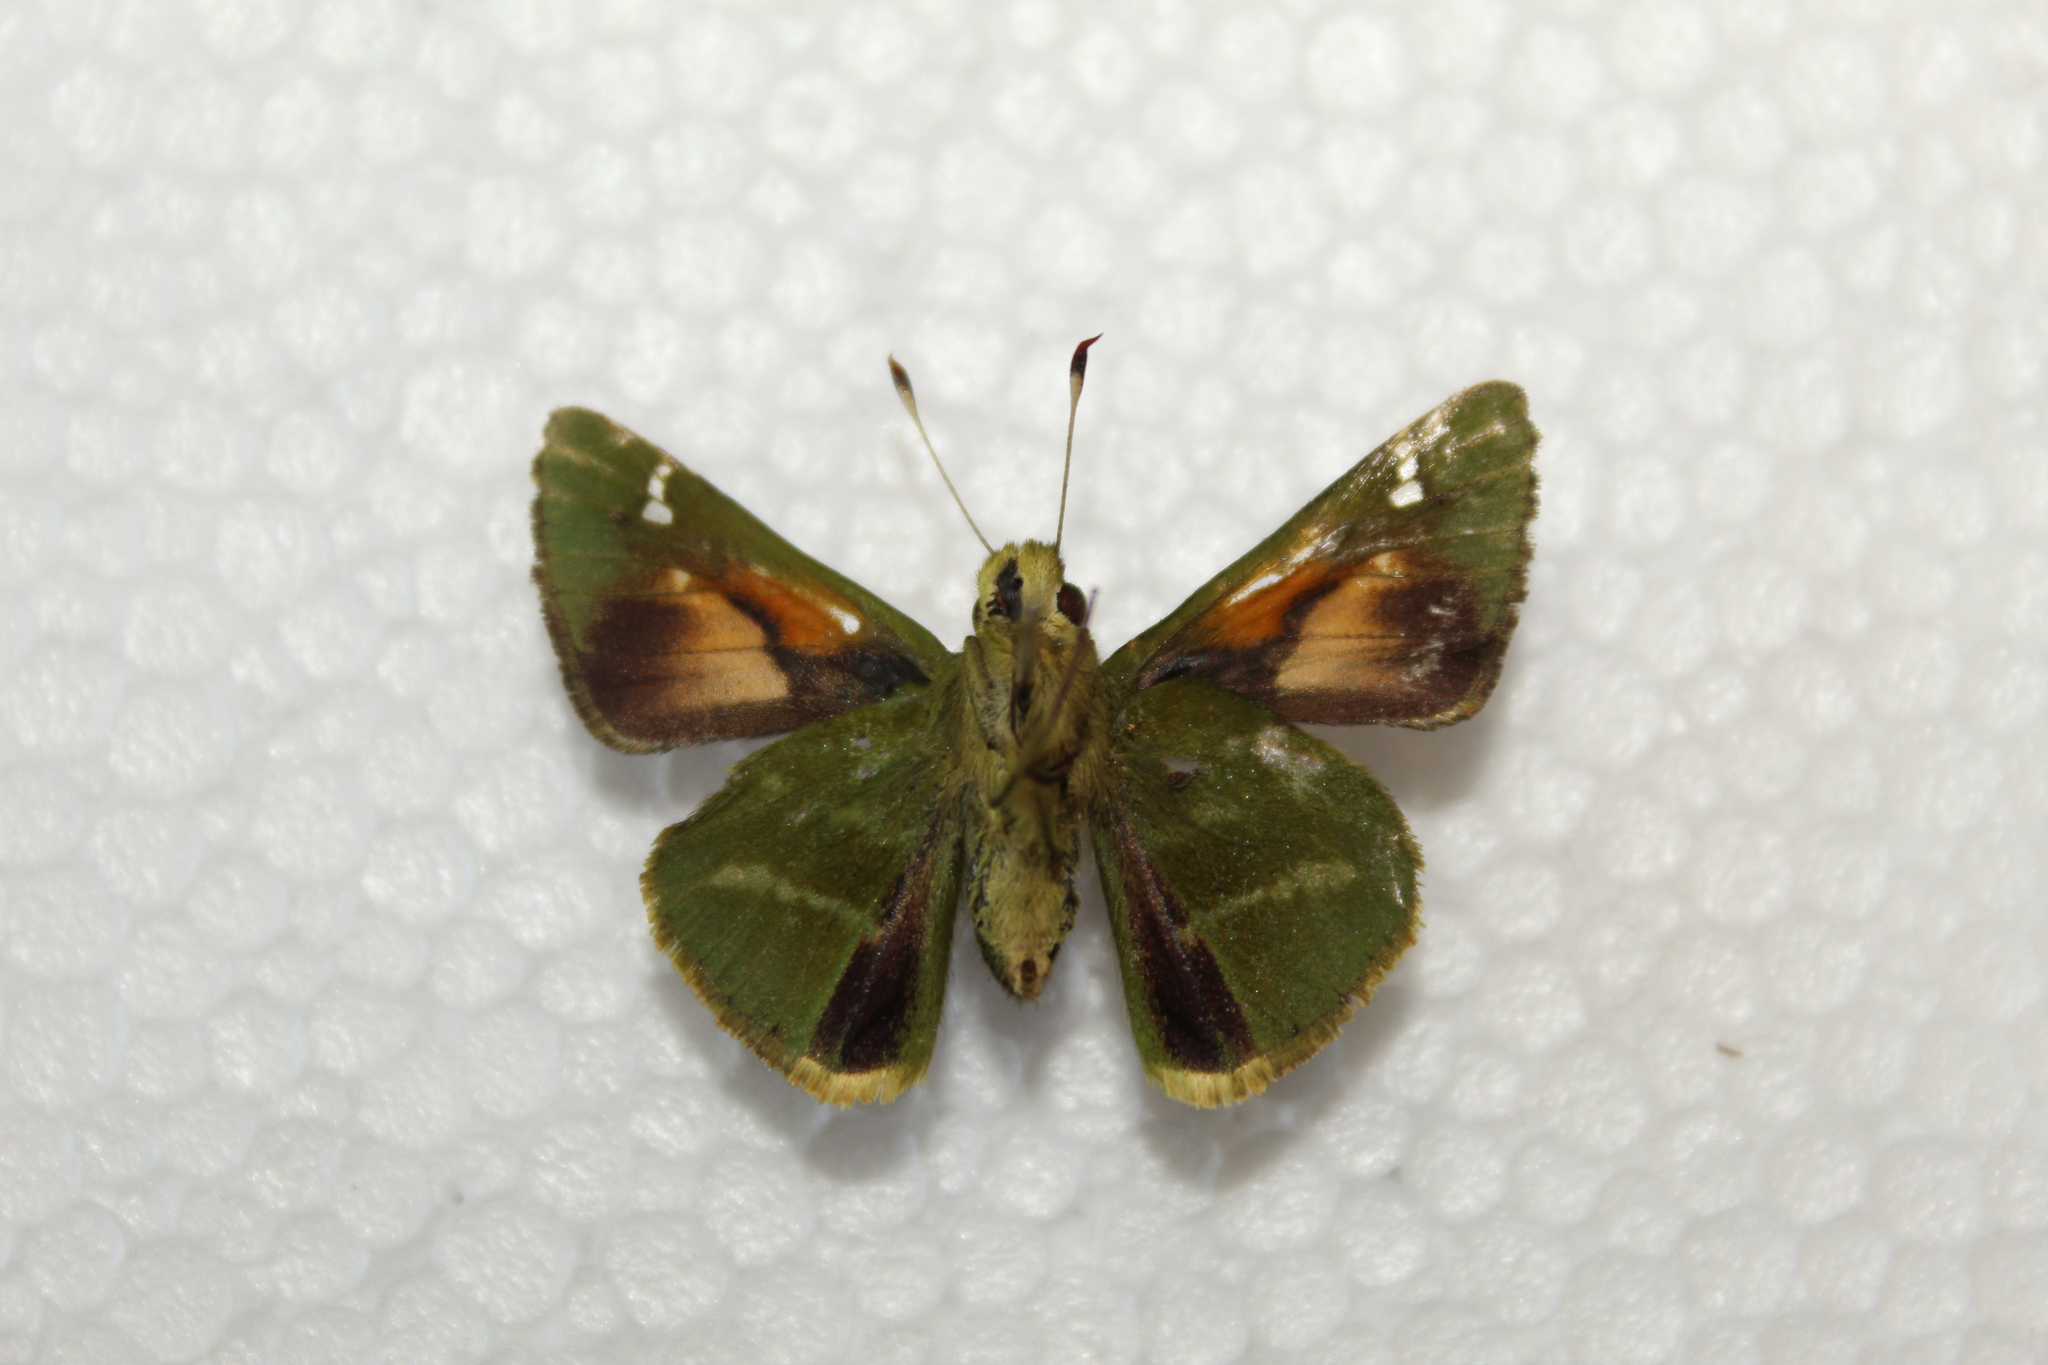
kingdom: Animalia
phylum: Arthropoda
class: Insecta
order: Lepidoptera
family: Hesperiidae
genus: Serdis
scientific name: Serdis viridicans
